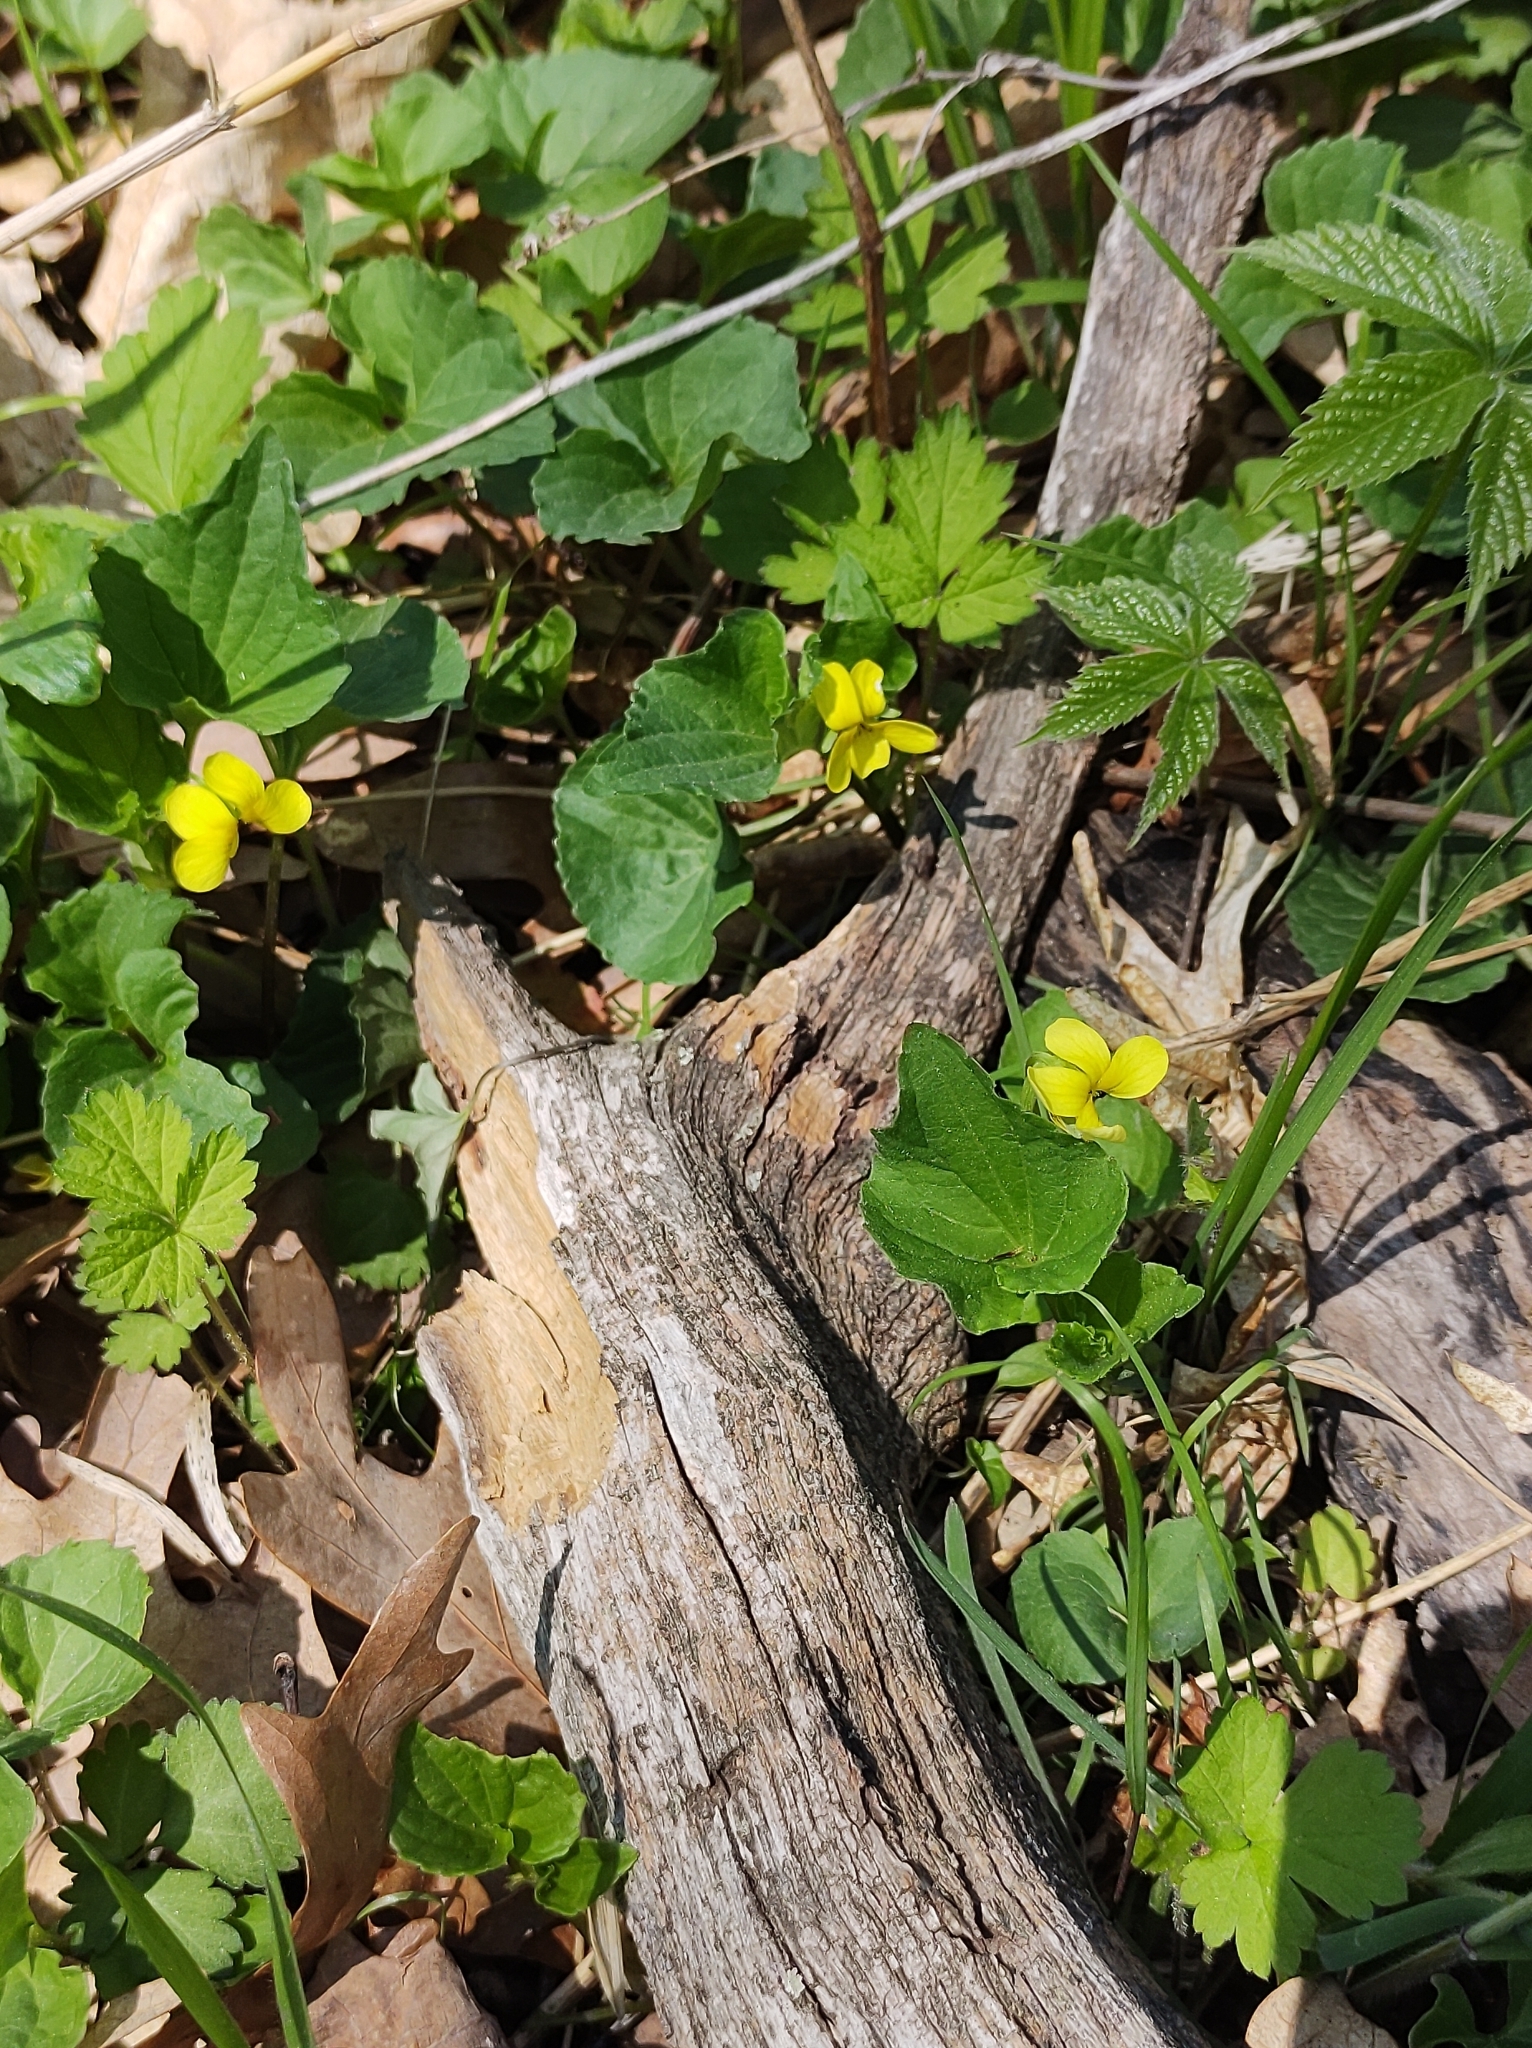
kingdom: Plantae
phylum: Tracheophyta
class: Magnoliopsida
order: Malpighiales
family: Violaceae
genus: Viola
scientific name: Viola eriocarpa
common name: Smooth yellow violet
